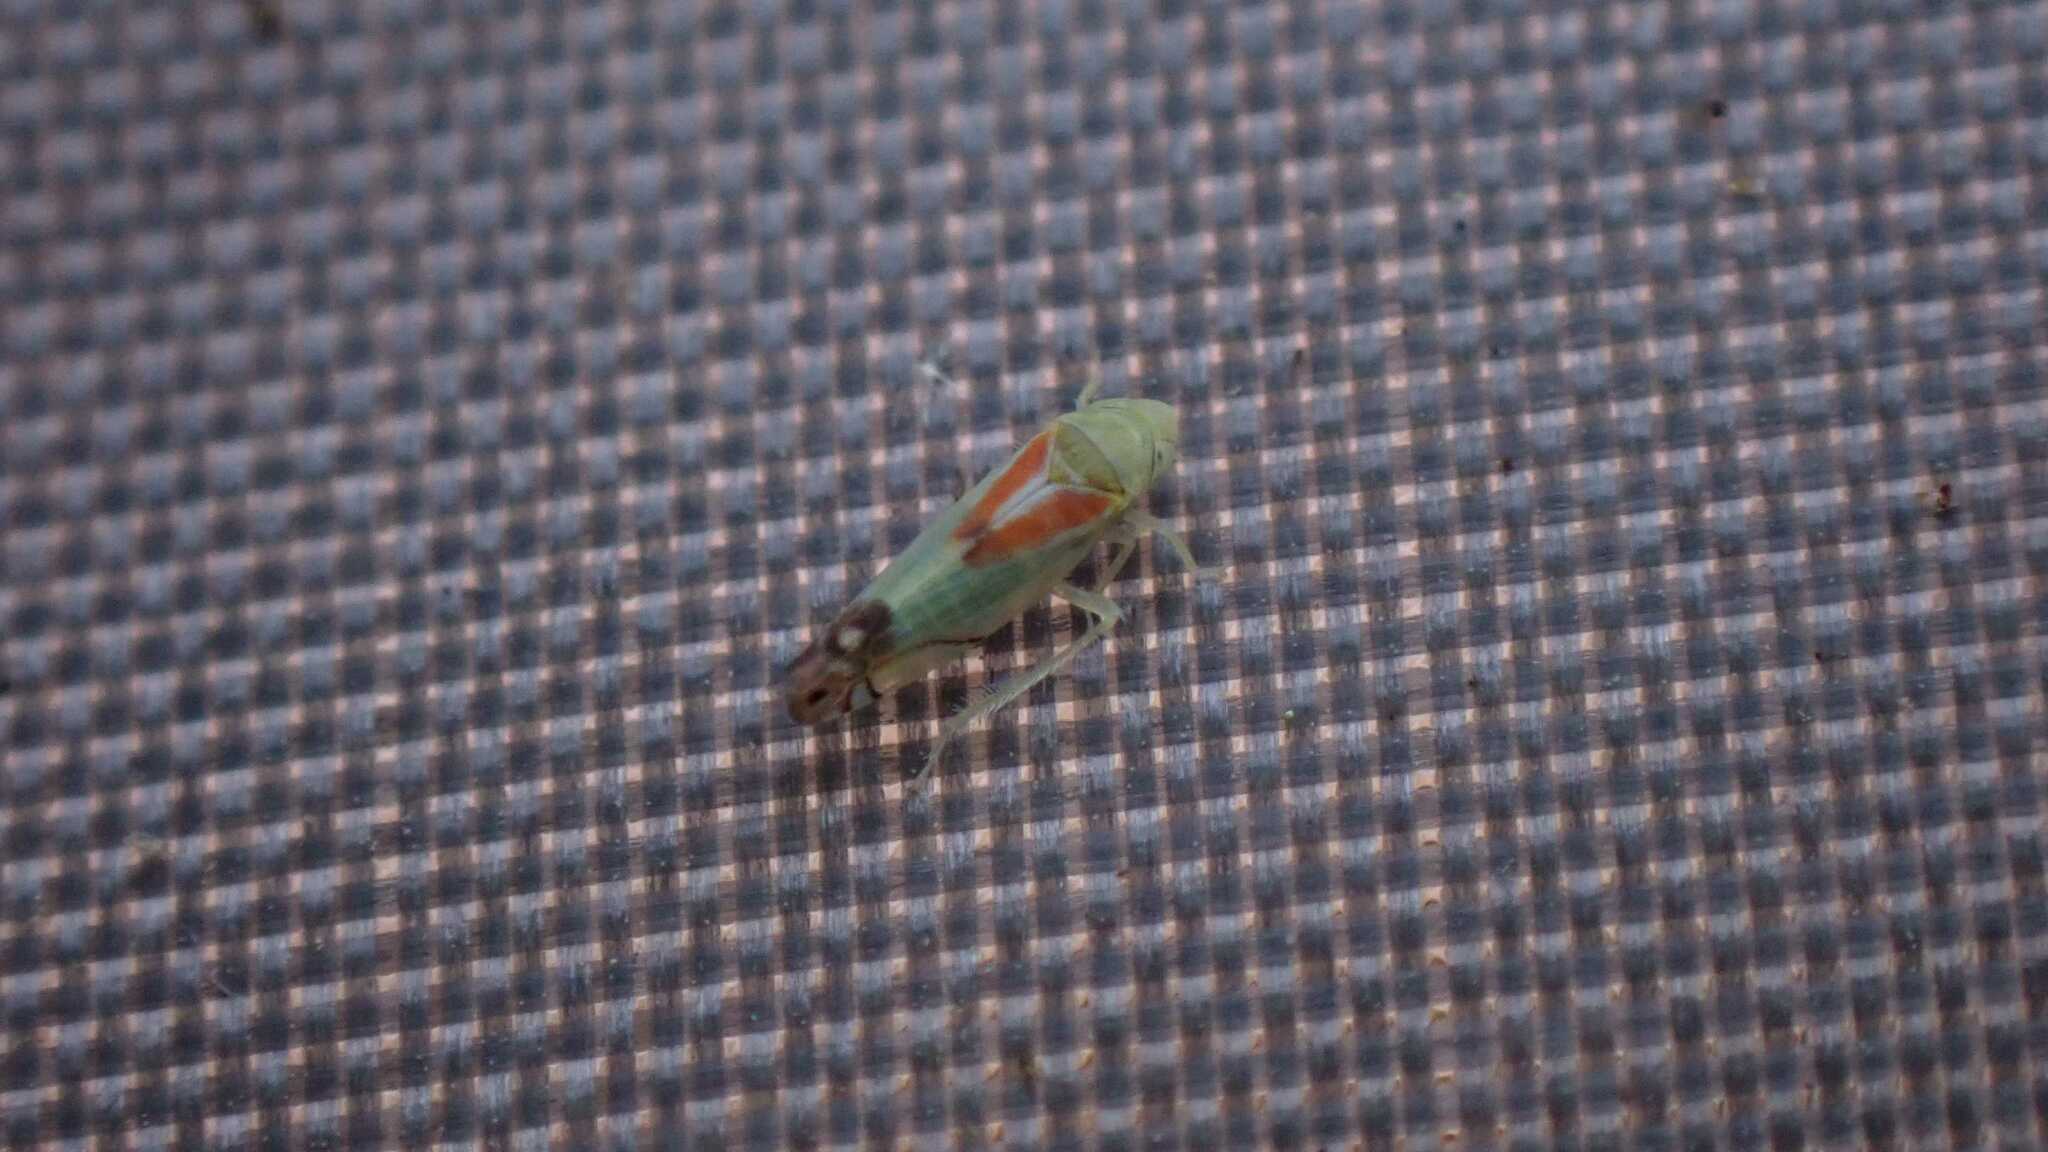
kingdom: Animalia
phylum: Arthropoda
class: Insecta
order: Hemiptera
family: Cicadellidae
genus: Zyginella
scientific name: Zyginella pulchra
